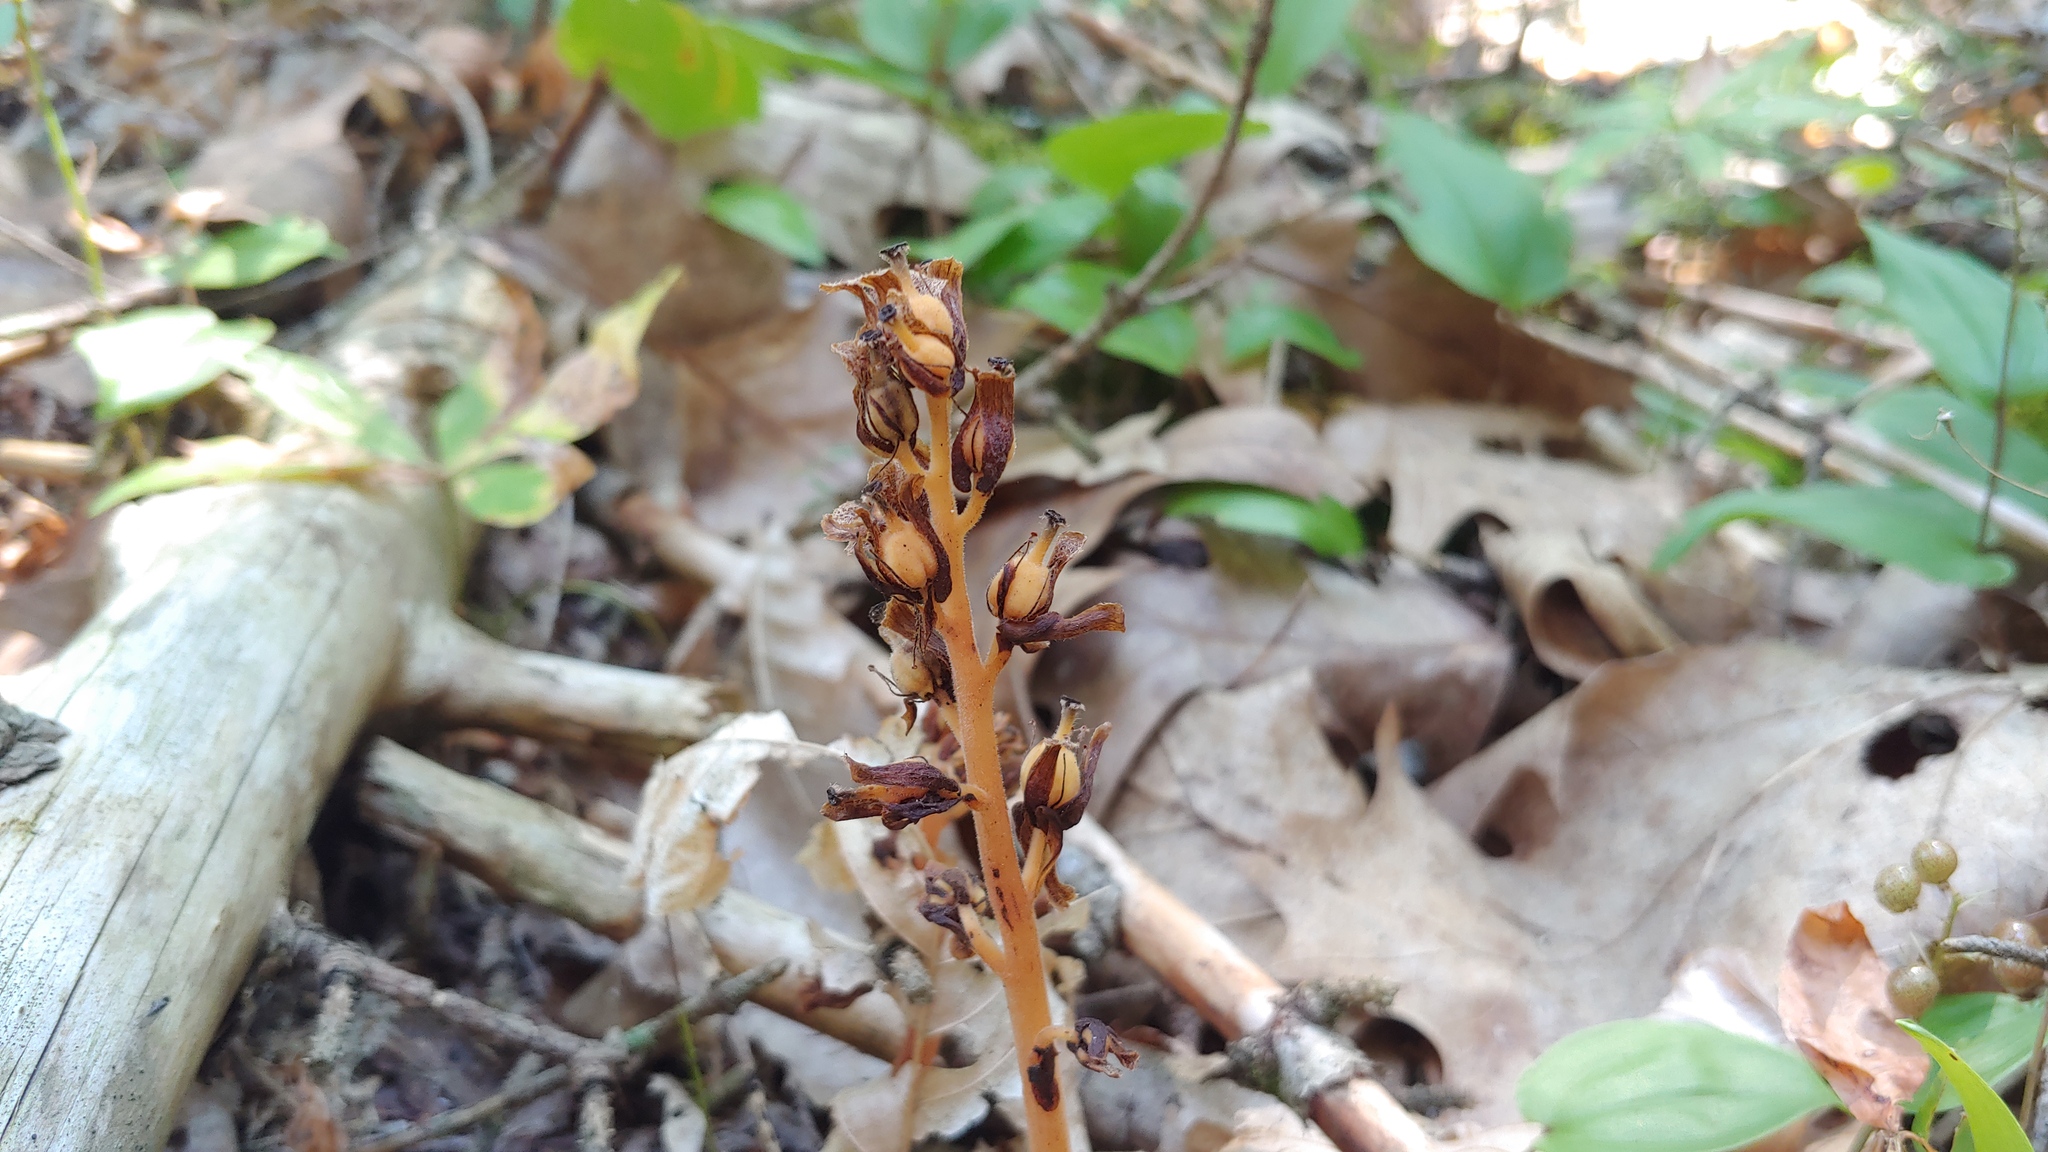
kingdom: Plantae
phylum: Tracheophyta
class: Magnoliopsida
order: Ericales
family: Ericaceae
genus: Hypopitys
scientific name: Hypopitys monotropa
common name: Yellow bird's-nest
